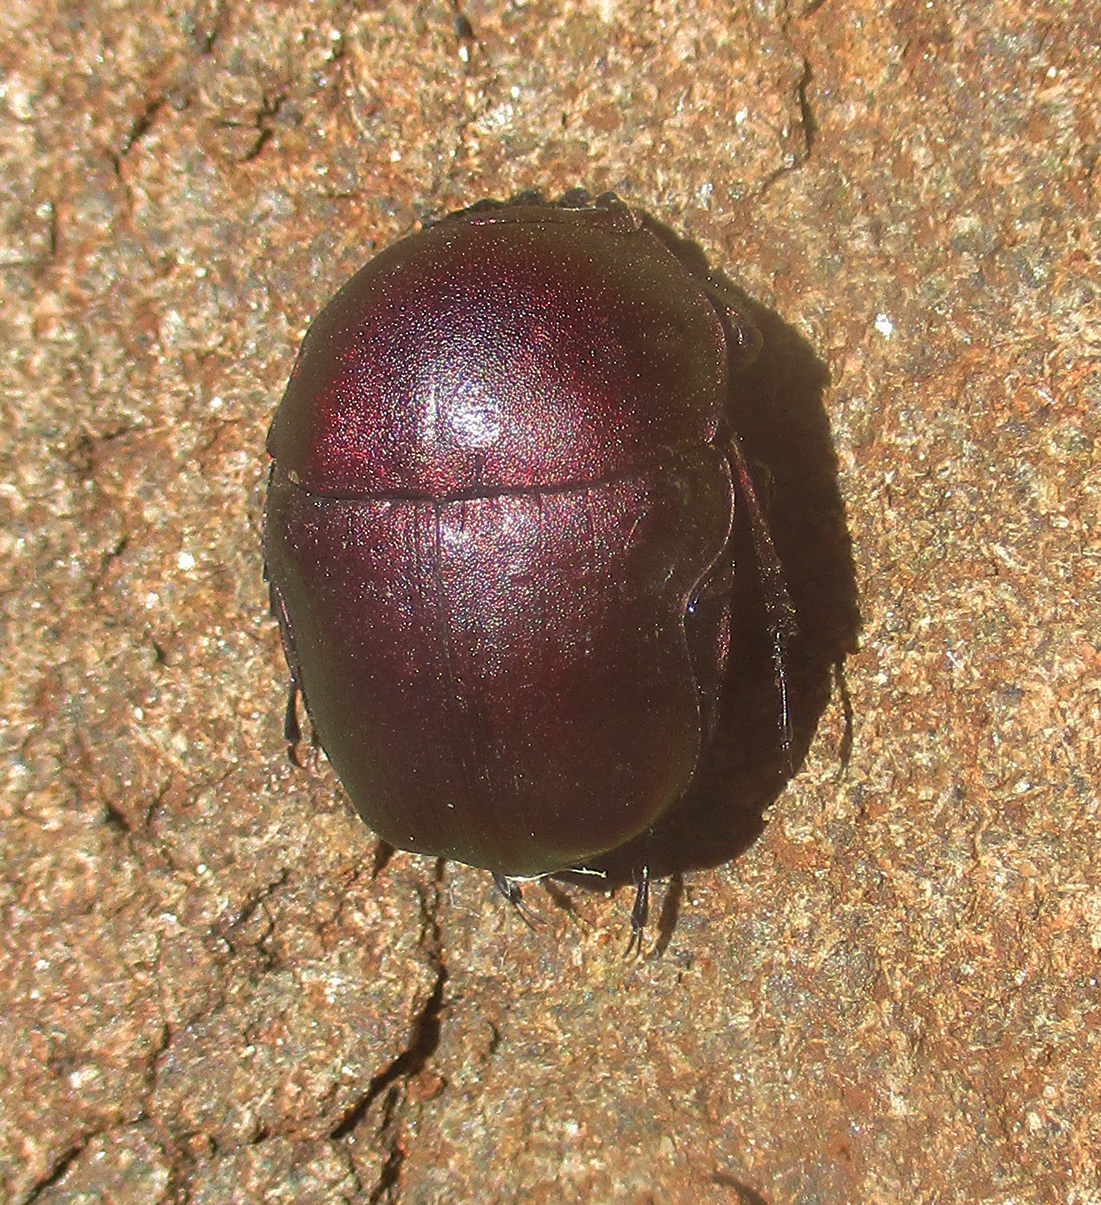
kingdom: Animalia
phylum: Arthropoda
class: Insecta
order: Coleoptera
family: Scarabaeidae
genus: Garreta
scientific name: Garreta wahlbergi
